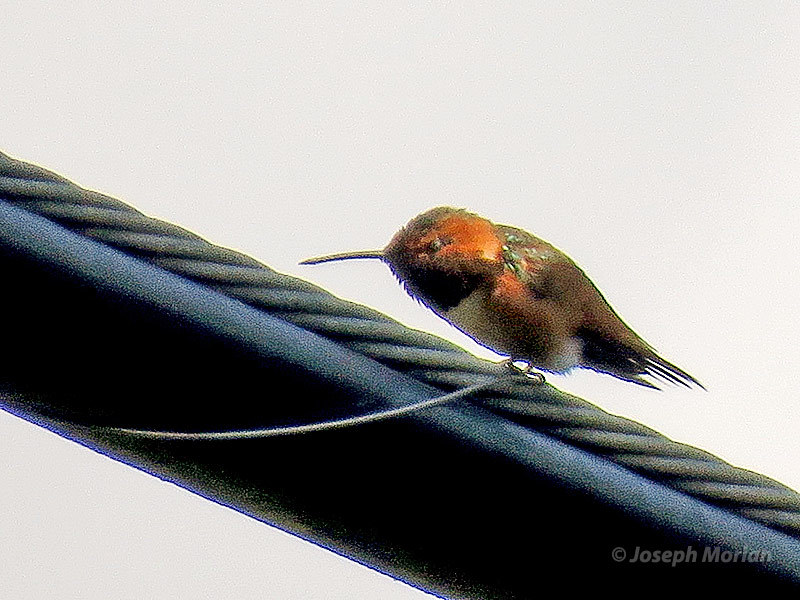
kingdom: Animalia
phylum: Chordata
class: Aves
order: Apodiformes
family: Trochilidae
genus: Selasphorus
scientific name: Selasphorus sasin
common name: Allen's hummingbird
